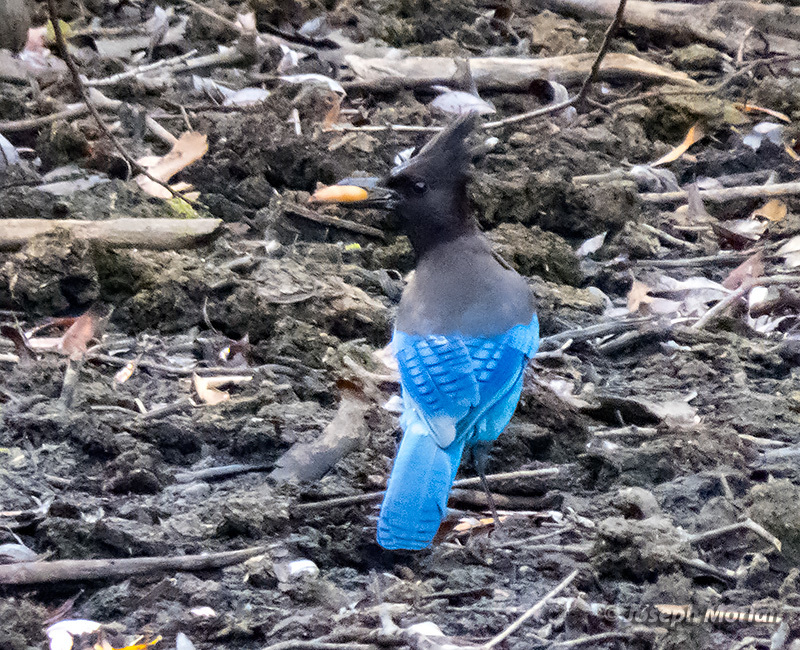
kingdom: Animalia
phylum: Chordata
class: Aves
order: Passeriformes
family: Corvidae
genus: Cyanocitta
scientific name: Cyanocitta stelleri
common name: Steller's jay
